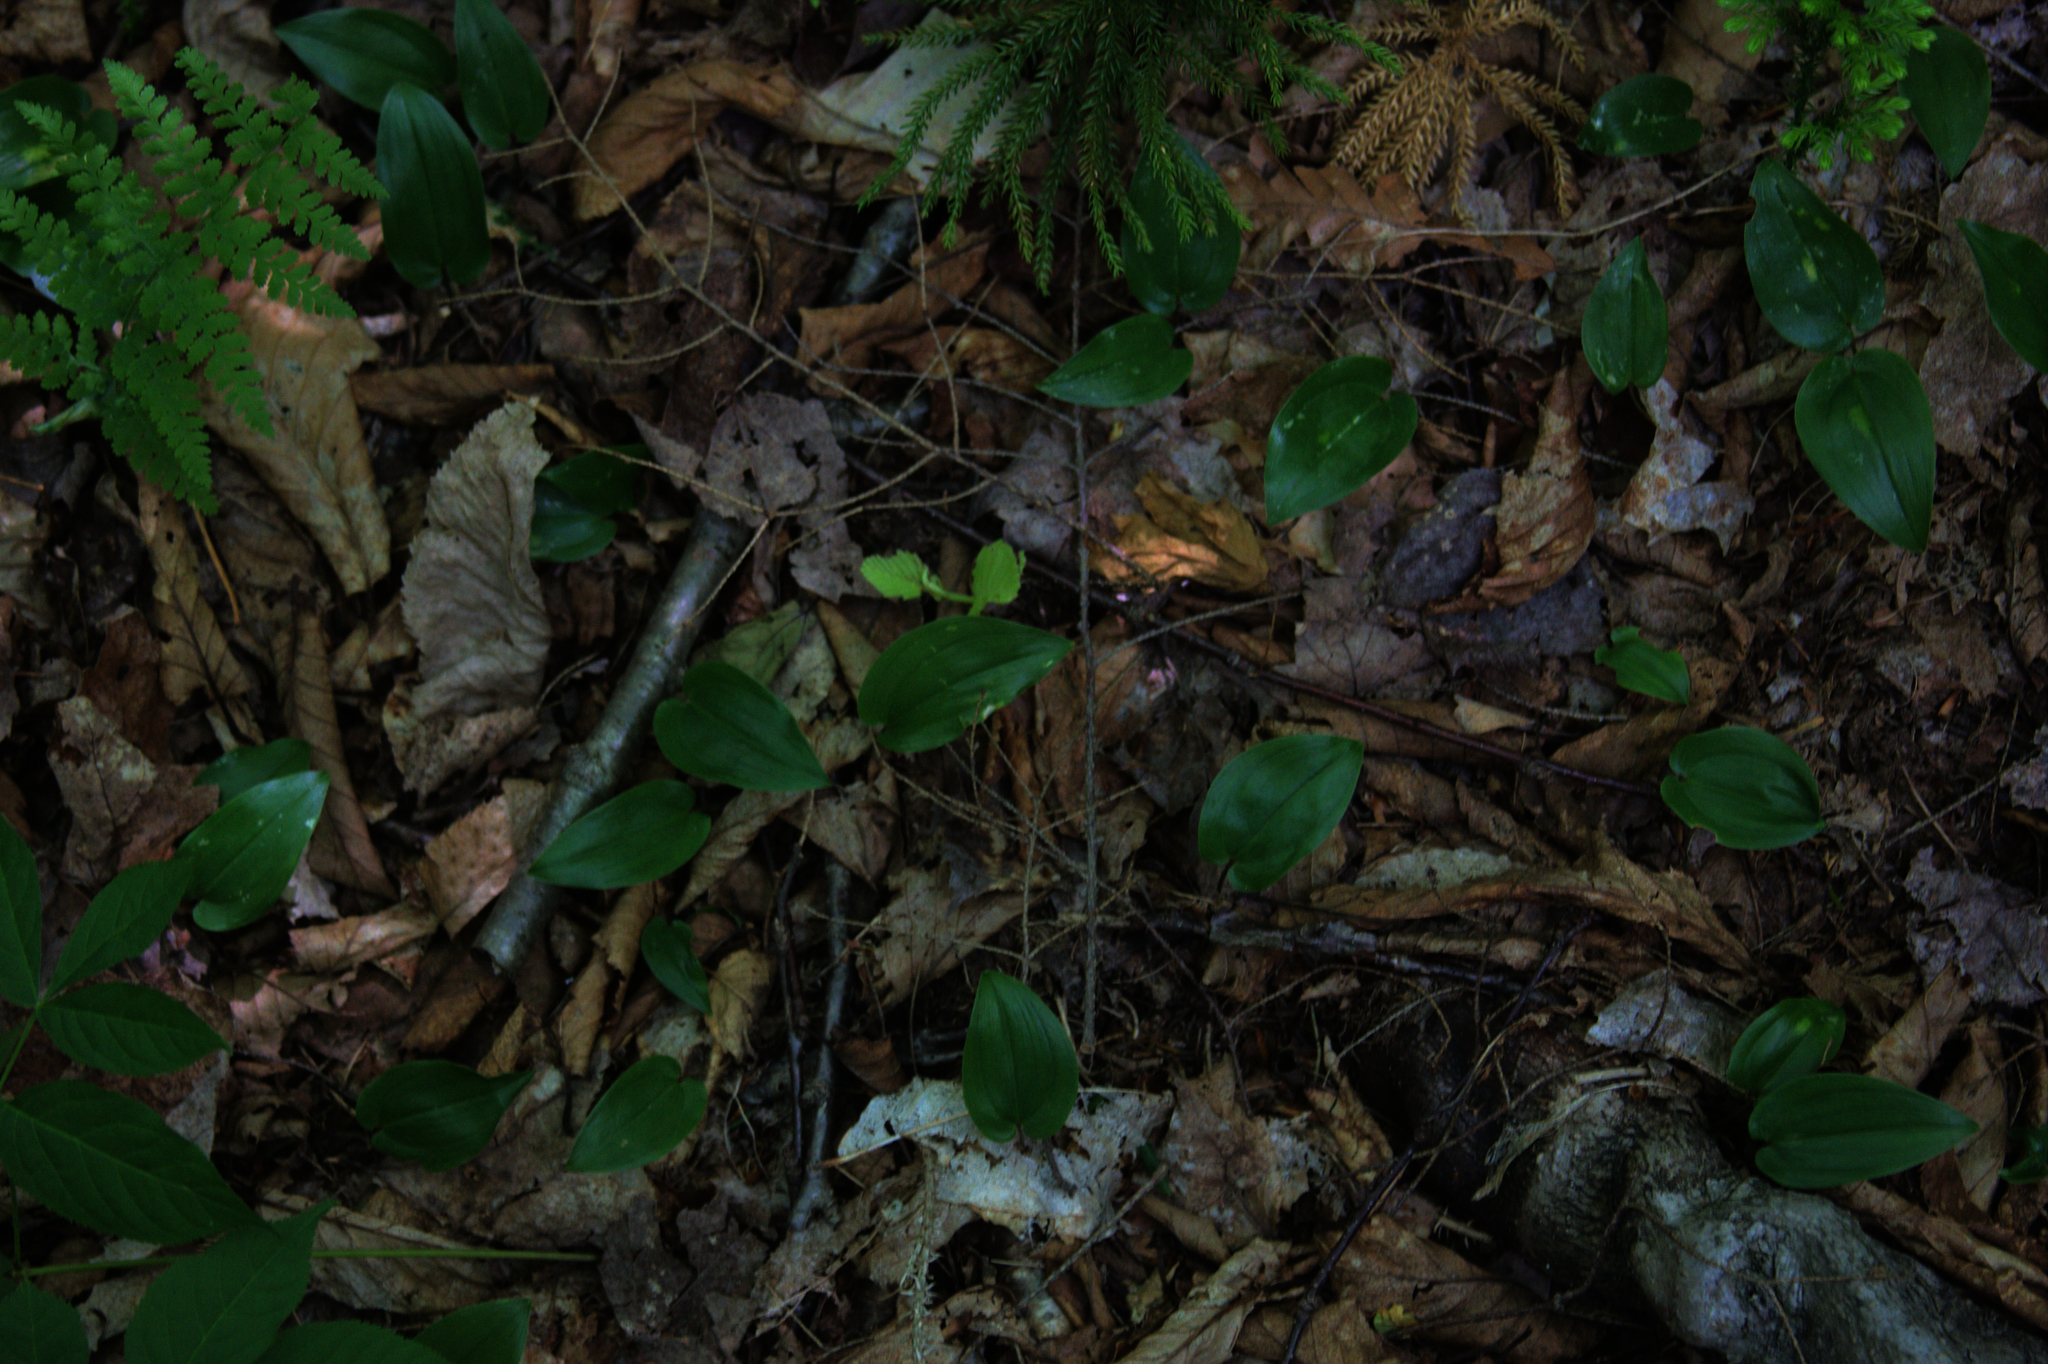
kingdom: Plantae
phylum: Tracheophyta
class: Liliopsida
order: Asparagales
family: Asparagaceae
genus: Maianthemum
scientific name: Maianthemum canadense
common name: False lily-of-the-valley
